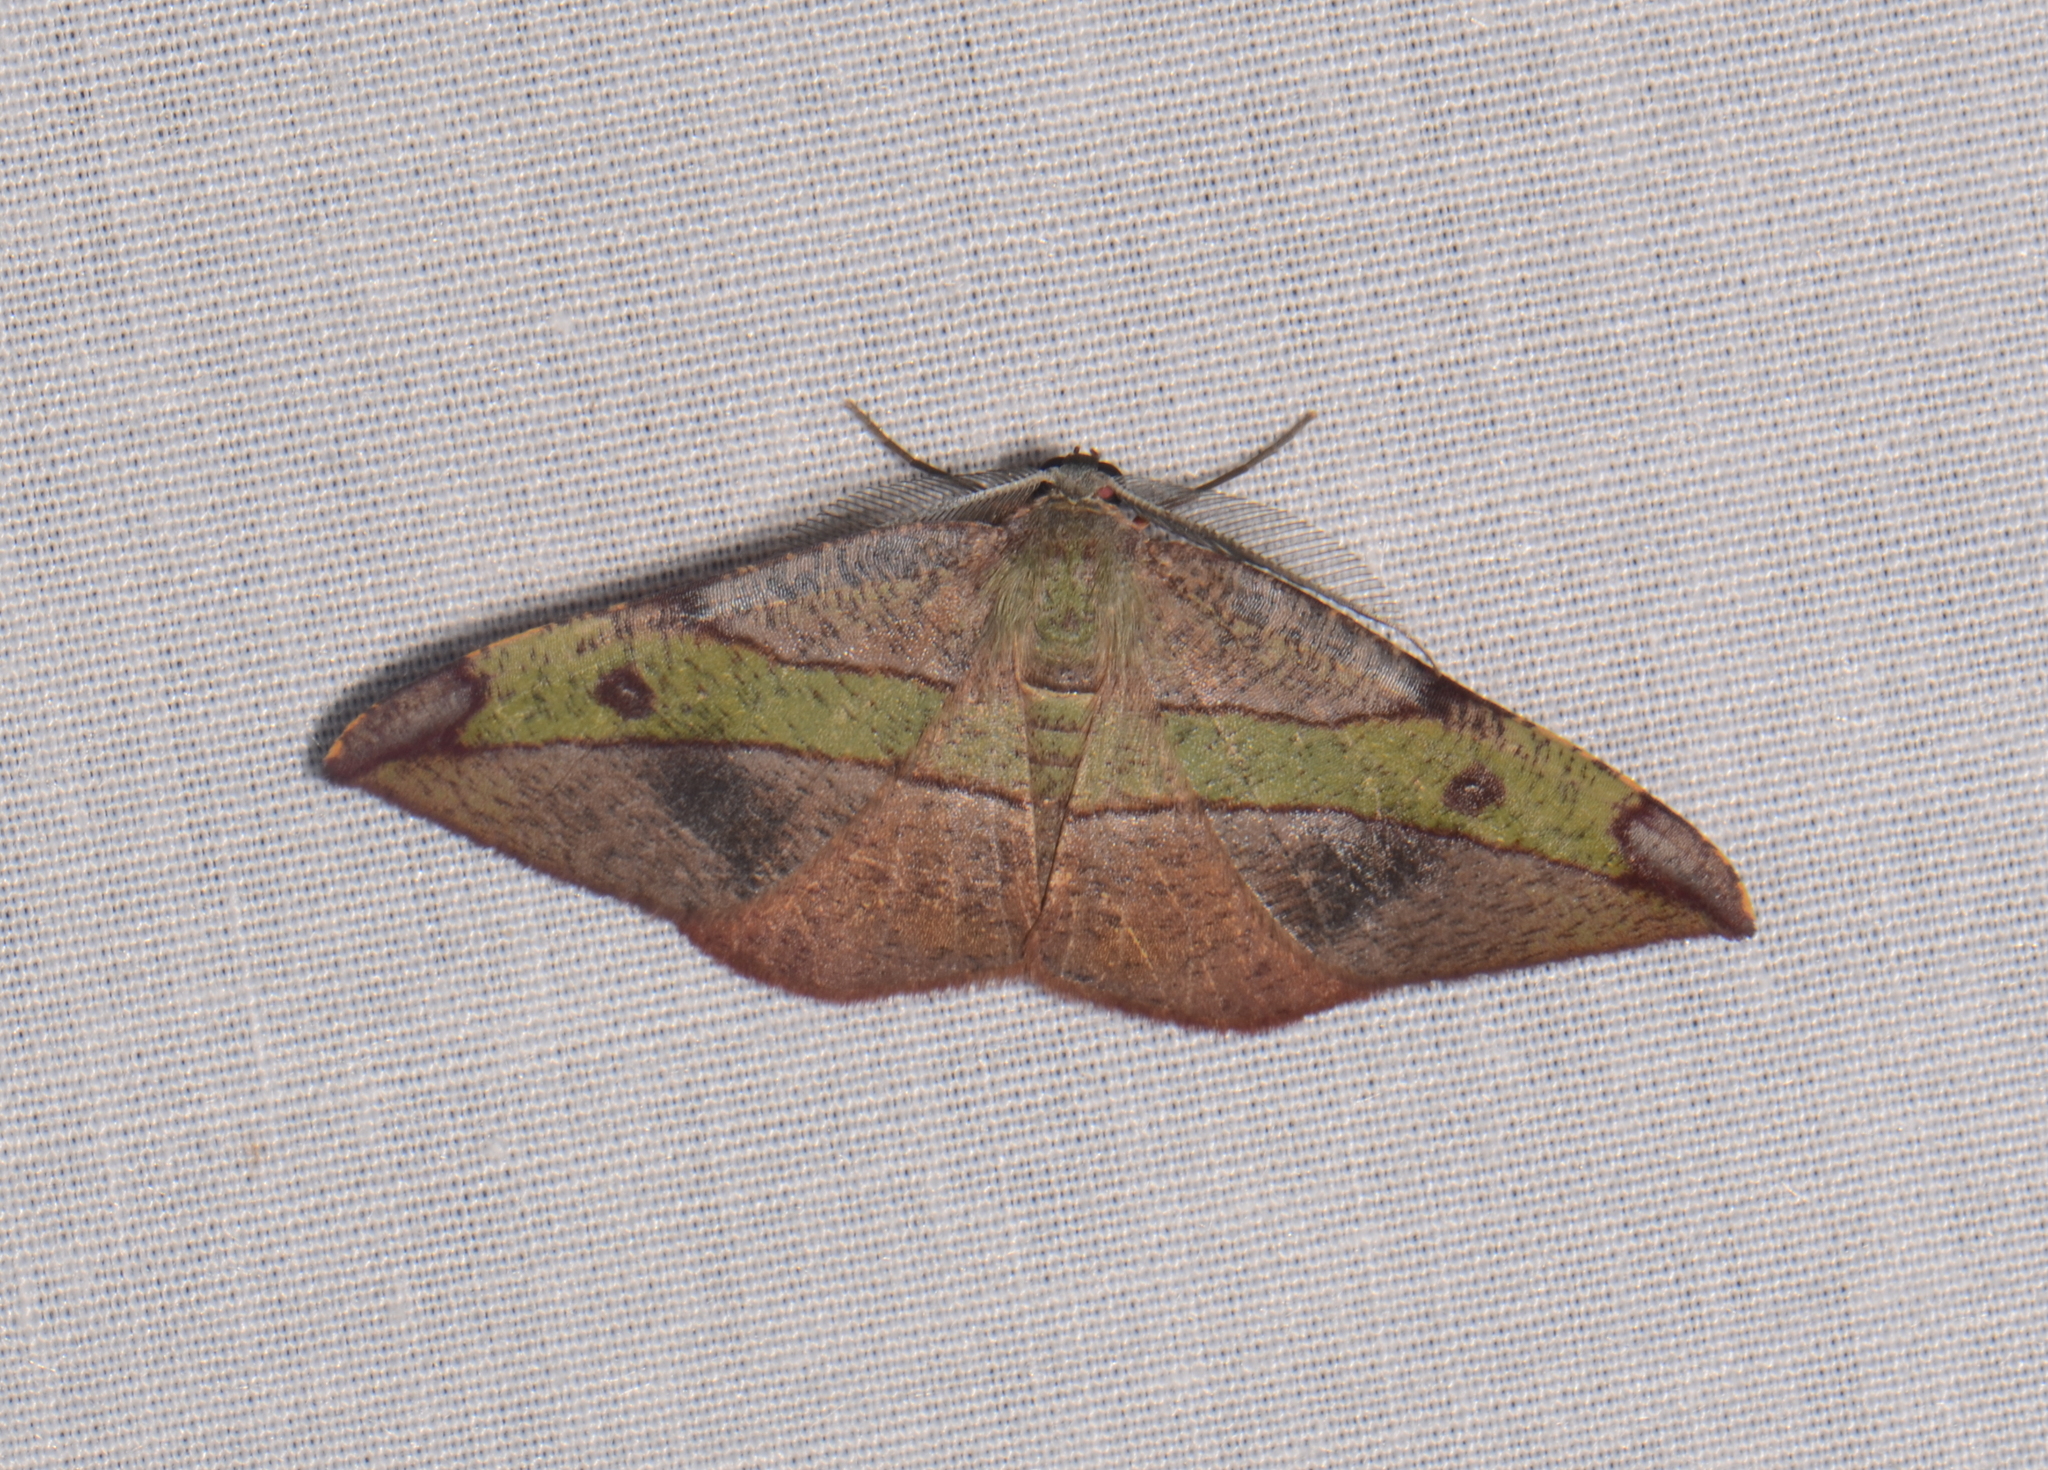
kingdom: Animalia
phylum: Arthropoda
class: Insecta
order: Lepidoptera
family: Geometridae
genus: Hypochrosis
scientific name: Hypochrosis hyadaria
